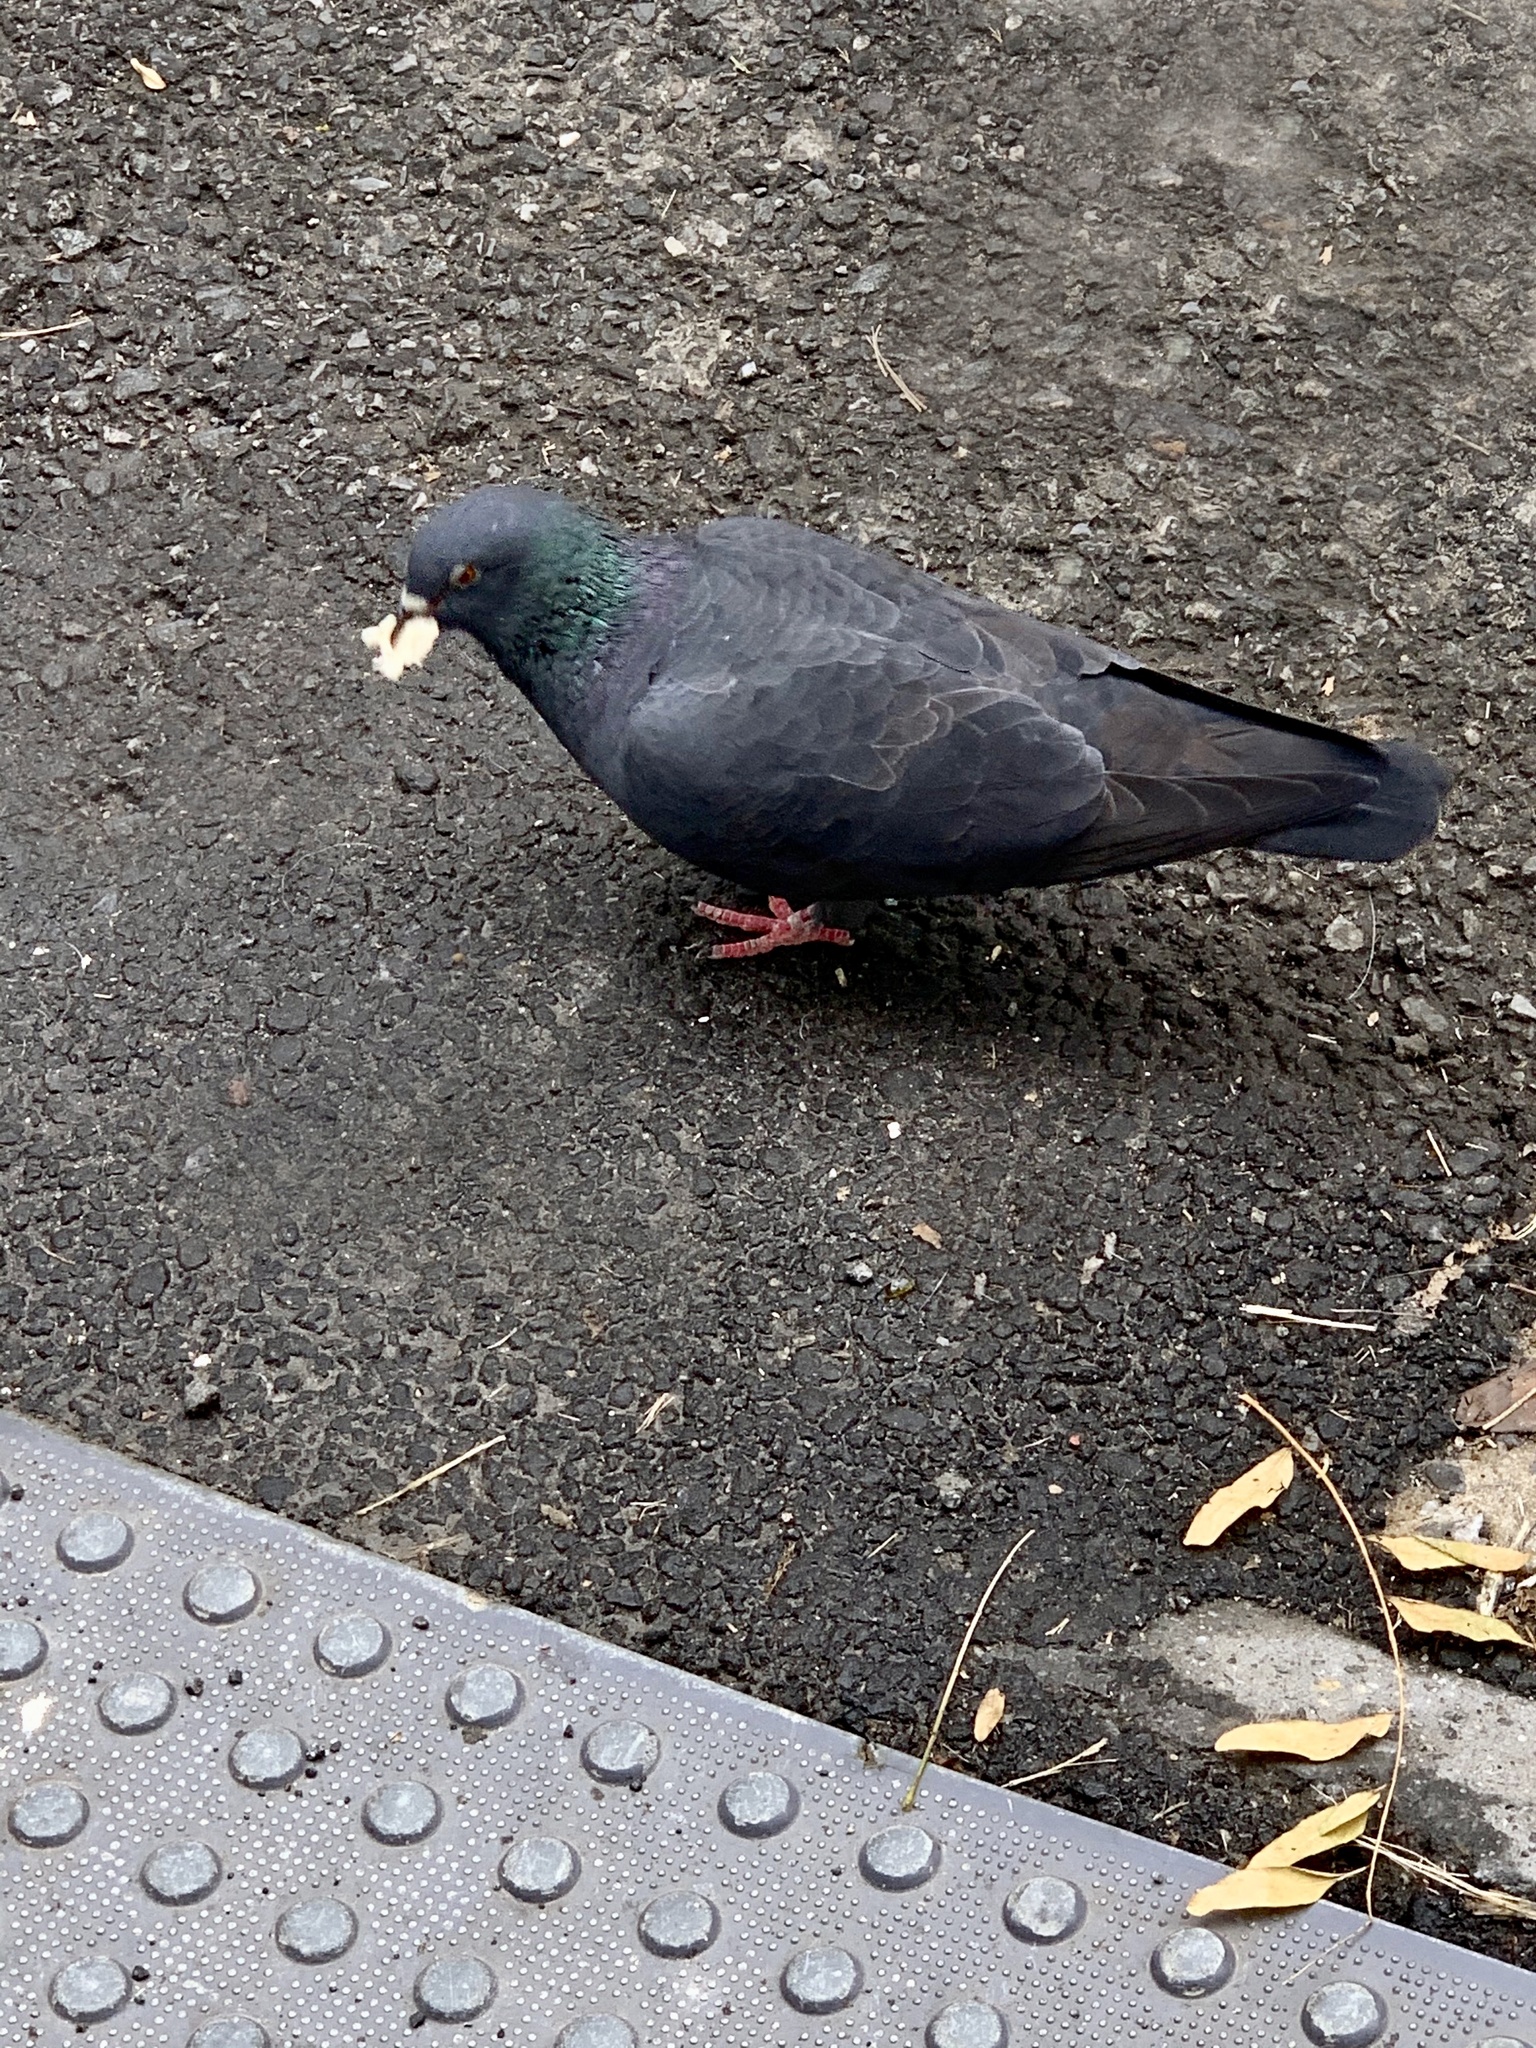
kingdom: Animalia
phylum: Chordata
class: Aves
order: Columbiformes
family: Columbidae
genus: Columba
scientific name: Columba livia
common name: Rock pigeon
